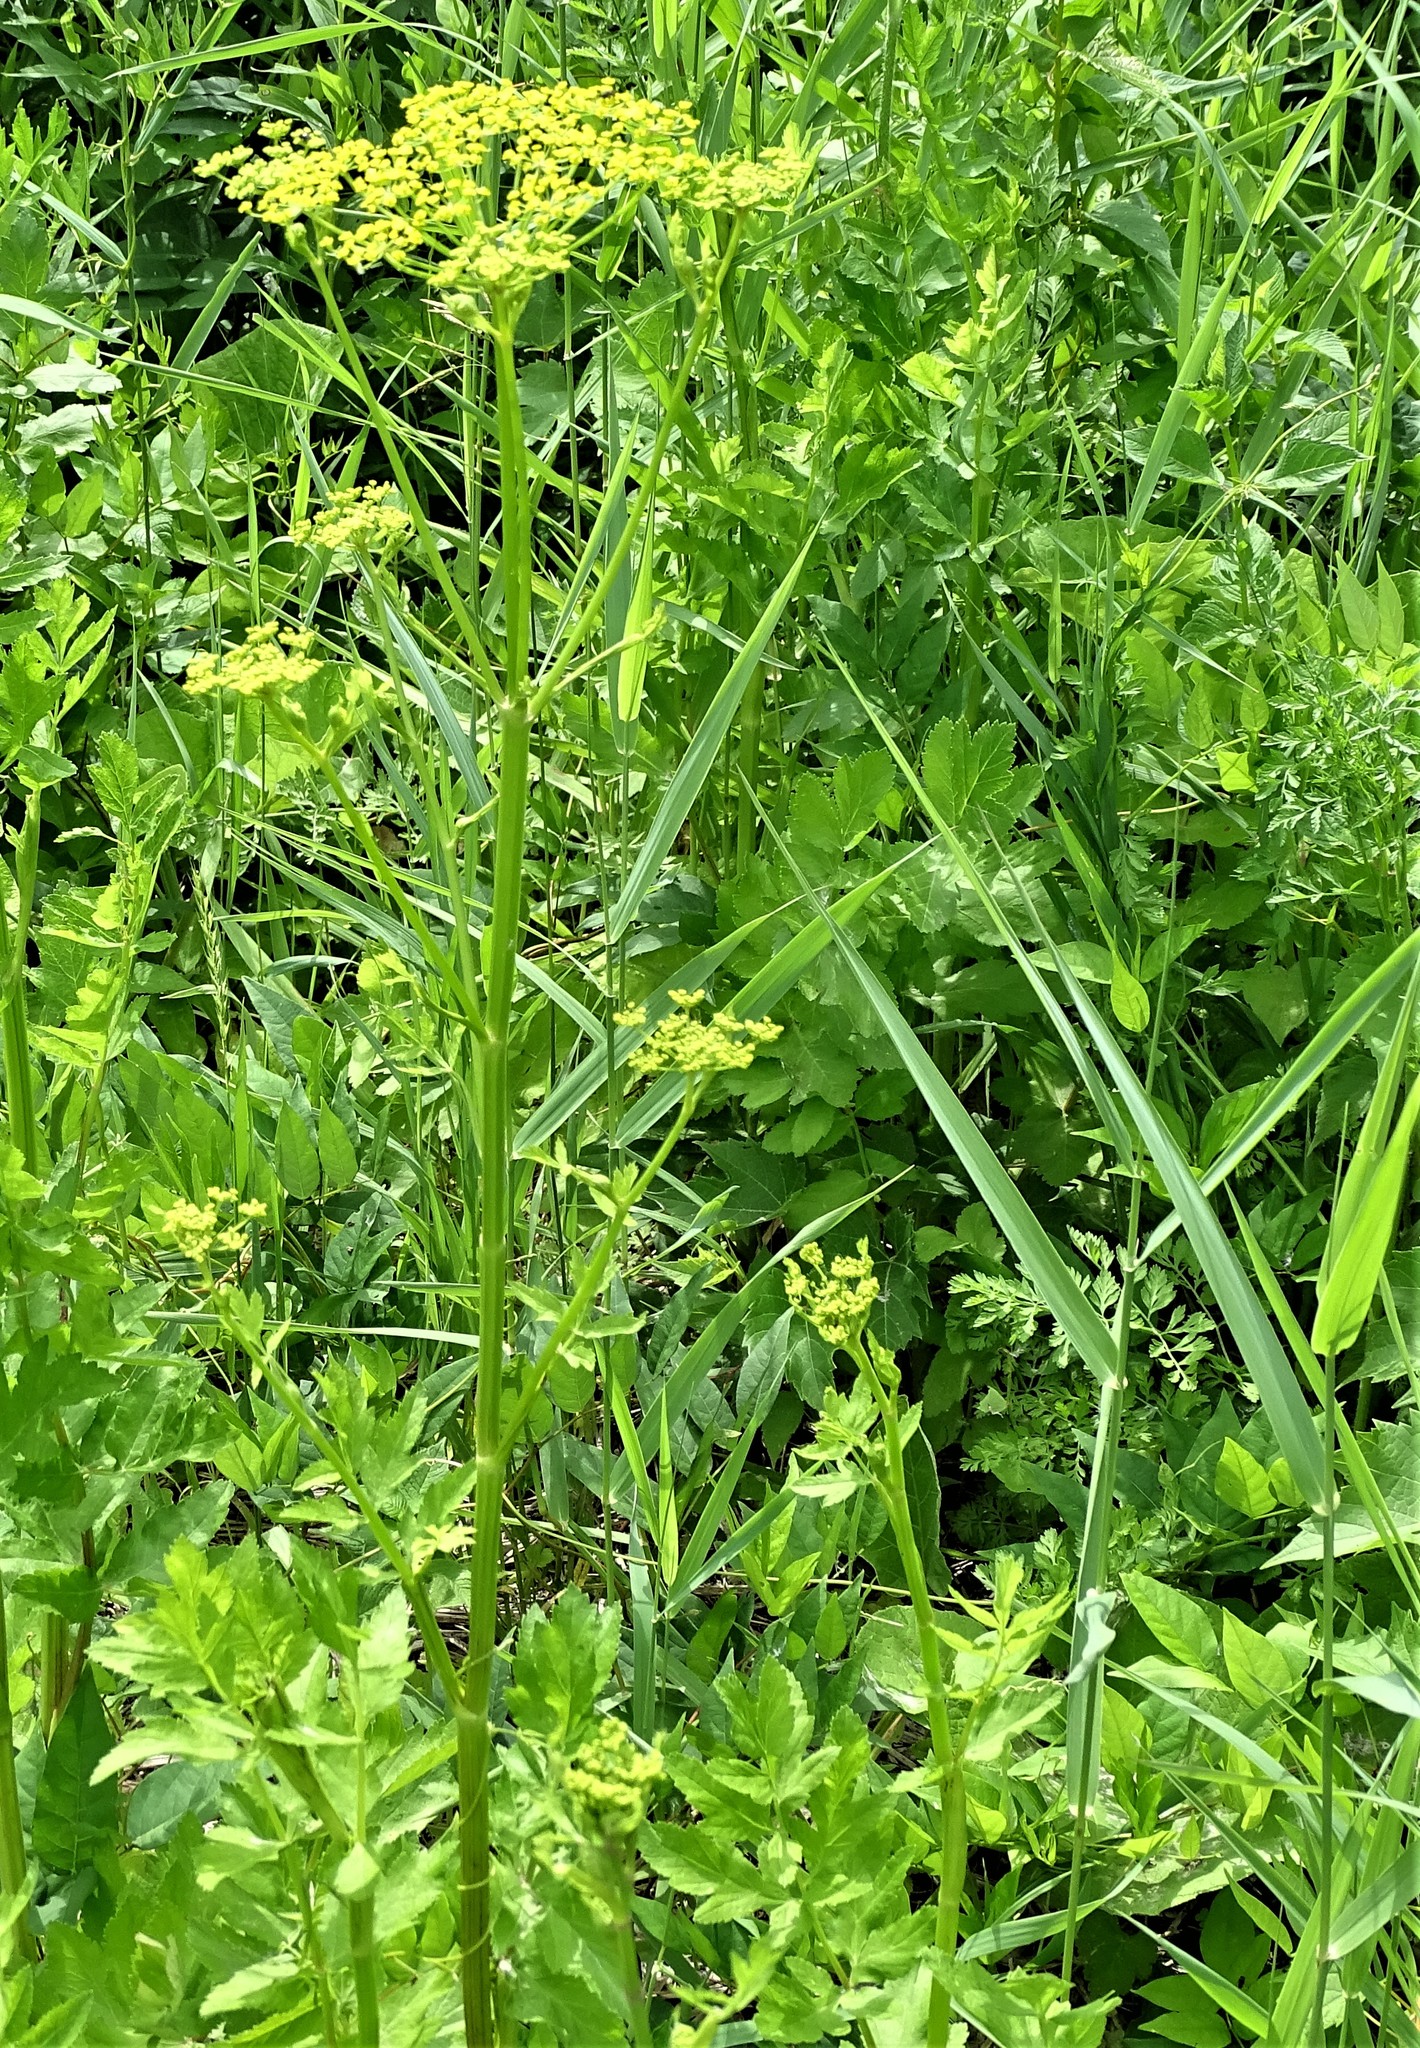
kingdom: Plantae
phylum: Tracheophyta
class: Magnoliopsida
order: Apiales
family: Apiaceae
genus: Pastinaca
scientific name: Pastinaca sativa
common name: Wild parsnip
